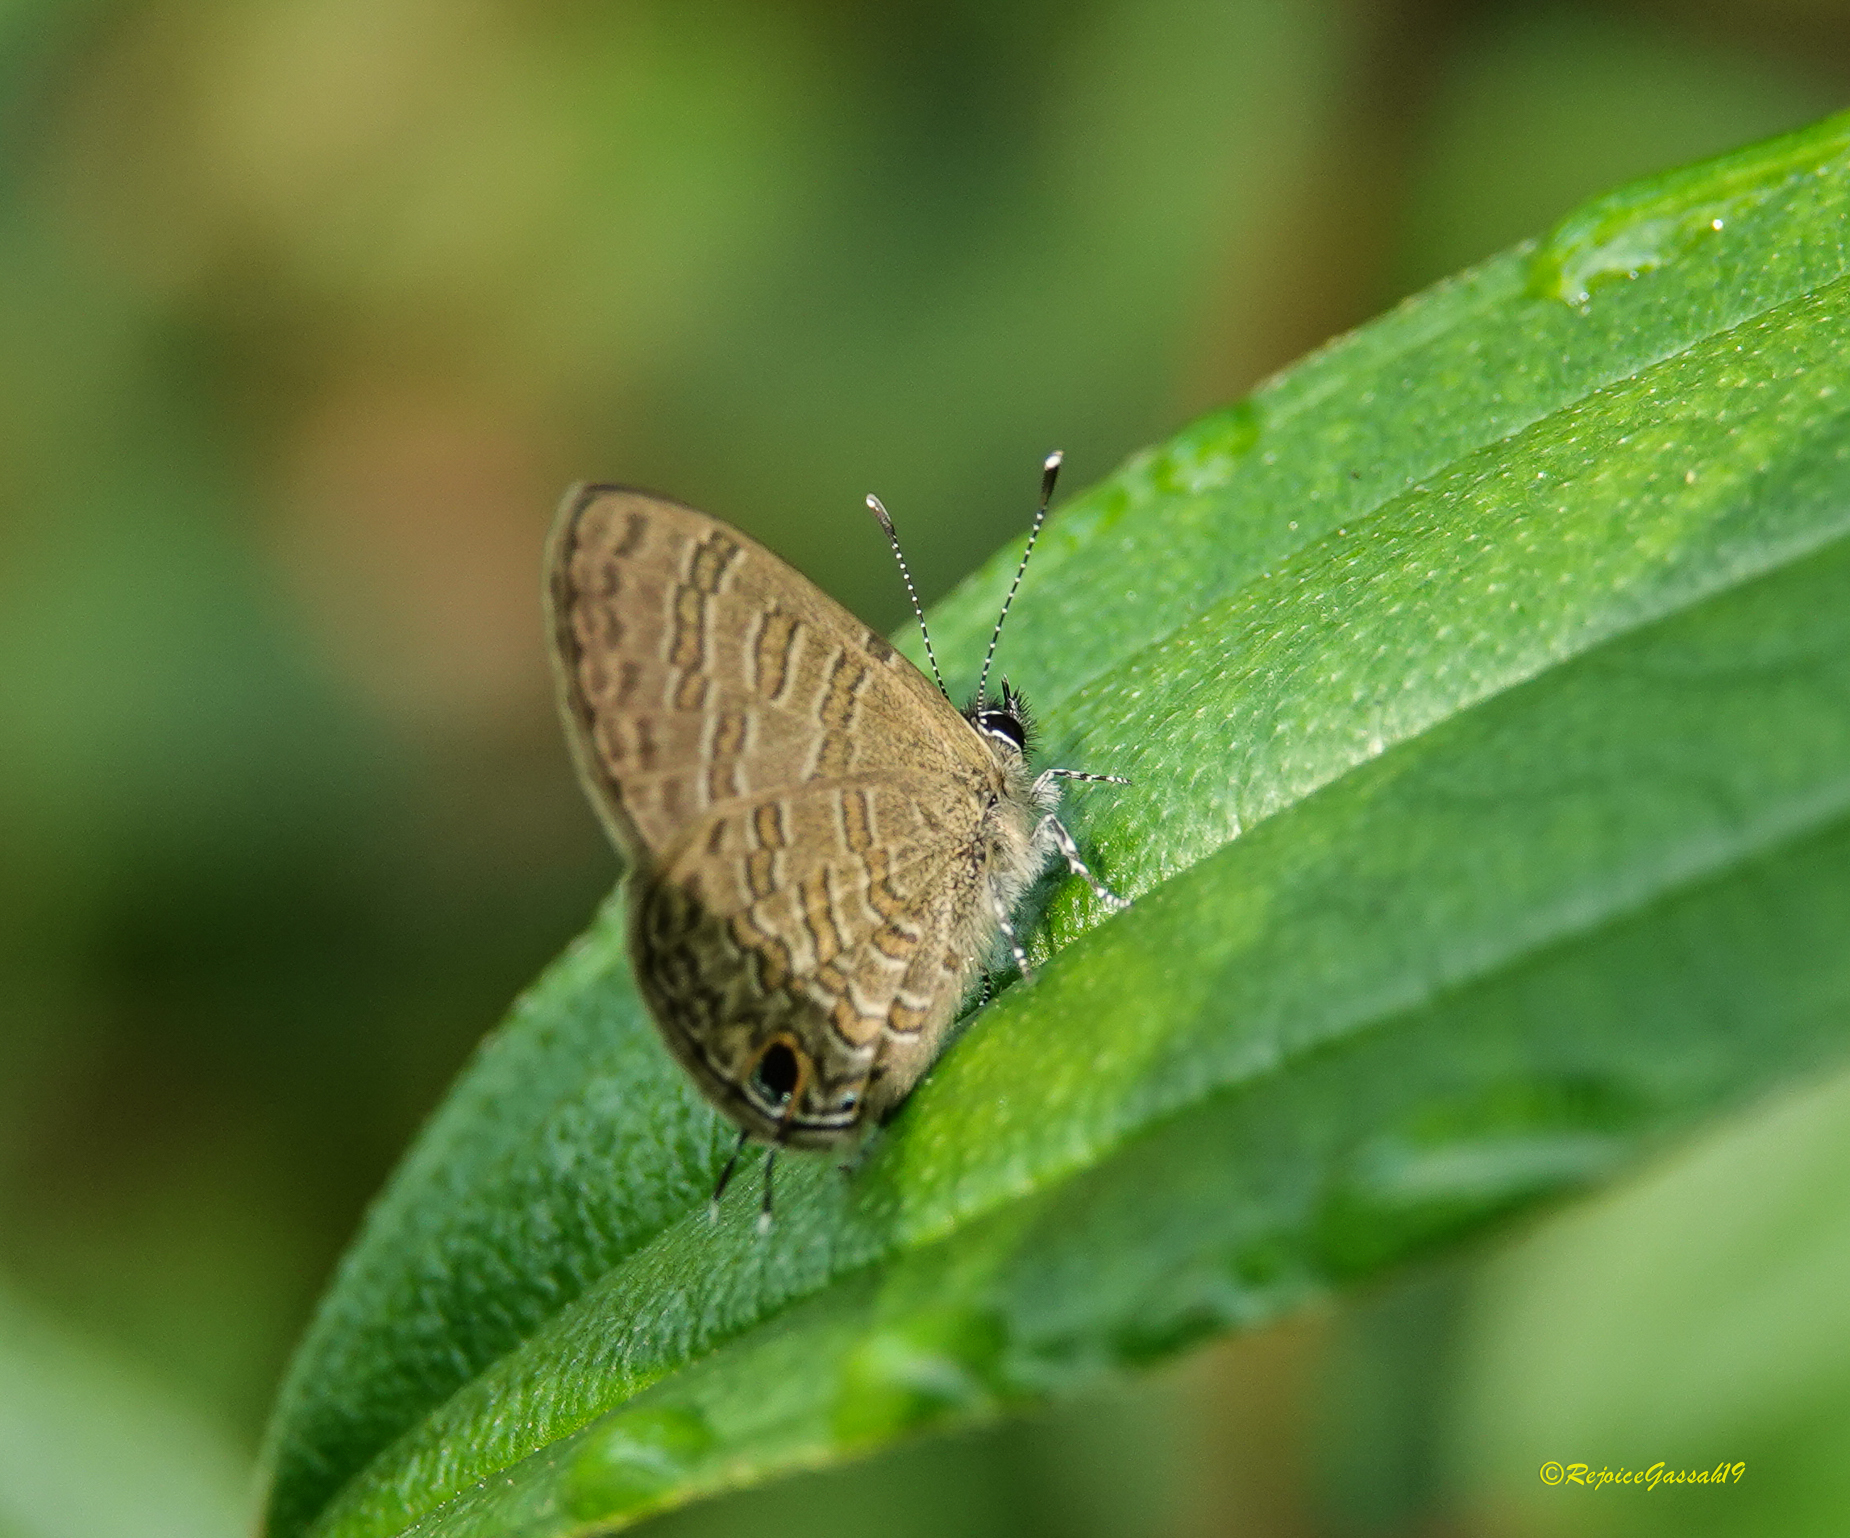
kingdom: Animalia
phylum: Arthropoda
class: Insecta
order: Lepidoptera
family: Lycaenidae
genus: Prosotas
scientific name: Prosotas nora
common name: Common line blue
